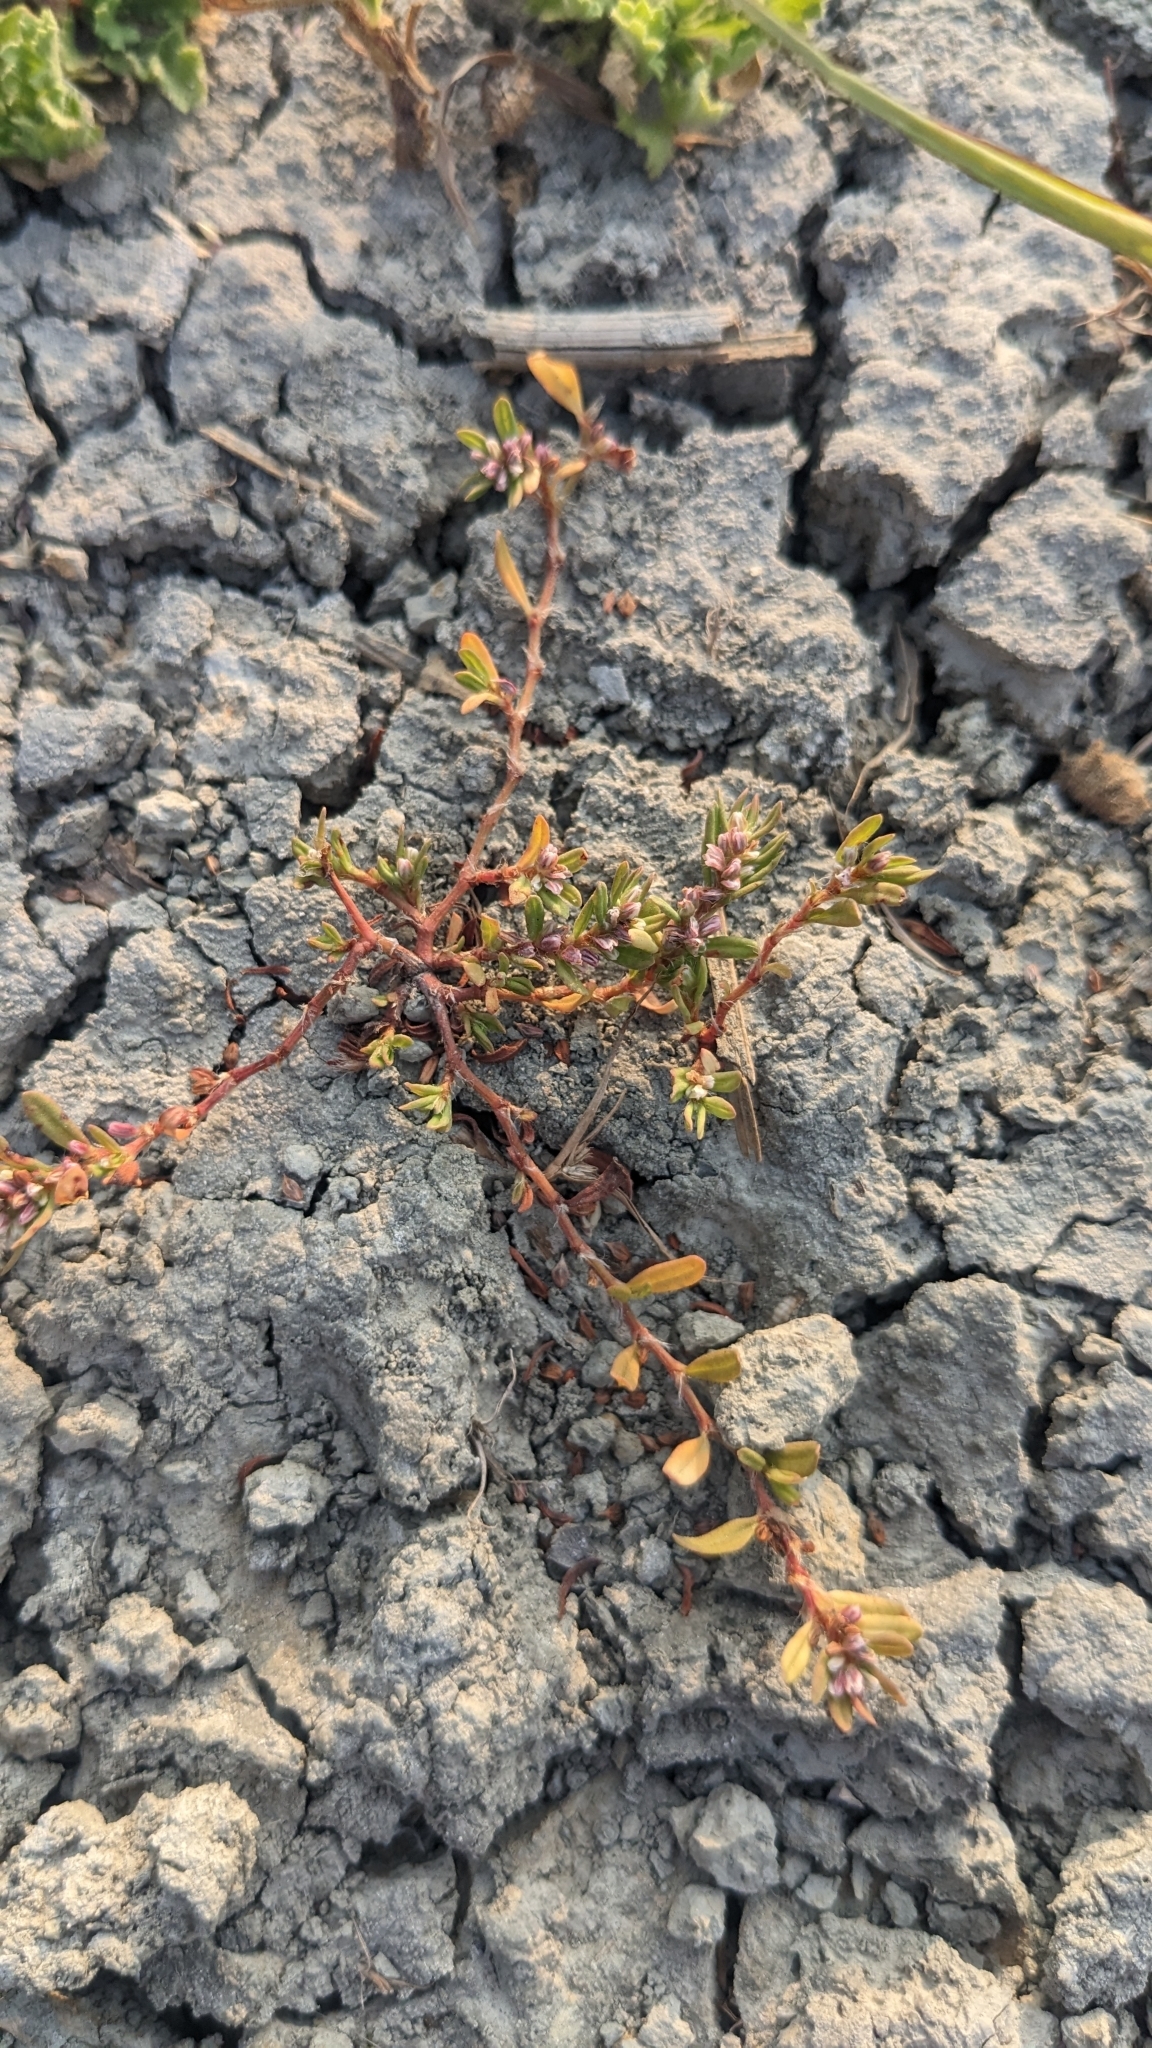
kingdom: Plantae
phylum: Tracheophyta
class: Magnoliopsida
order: Caryophyllales
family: Polygonaceae
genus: Polygonum
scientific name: Polygonum plebeium
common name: Common knotweed
